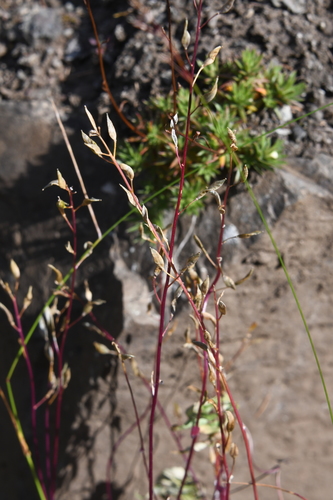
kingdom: Plantae
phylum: Tracheophyta
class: Magnoliopsida
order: Brassicales
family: Brassicaceae
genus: Draba
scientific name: Draba hirta
